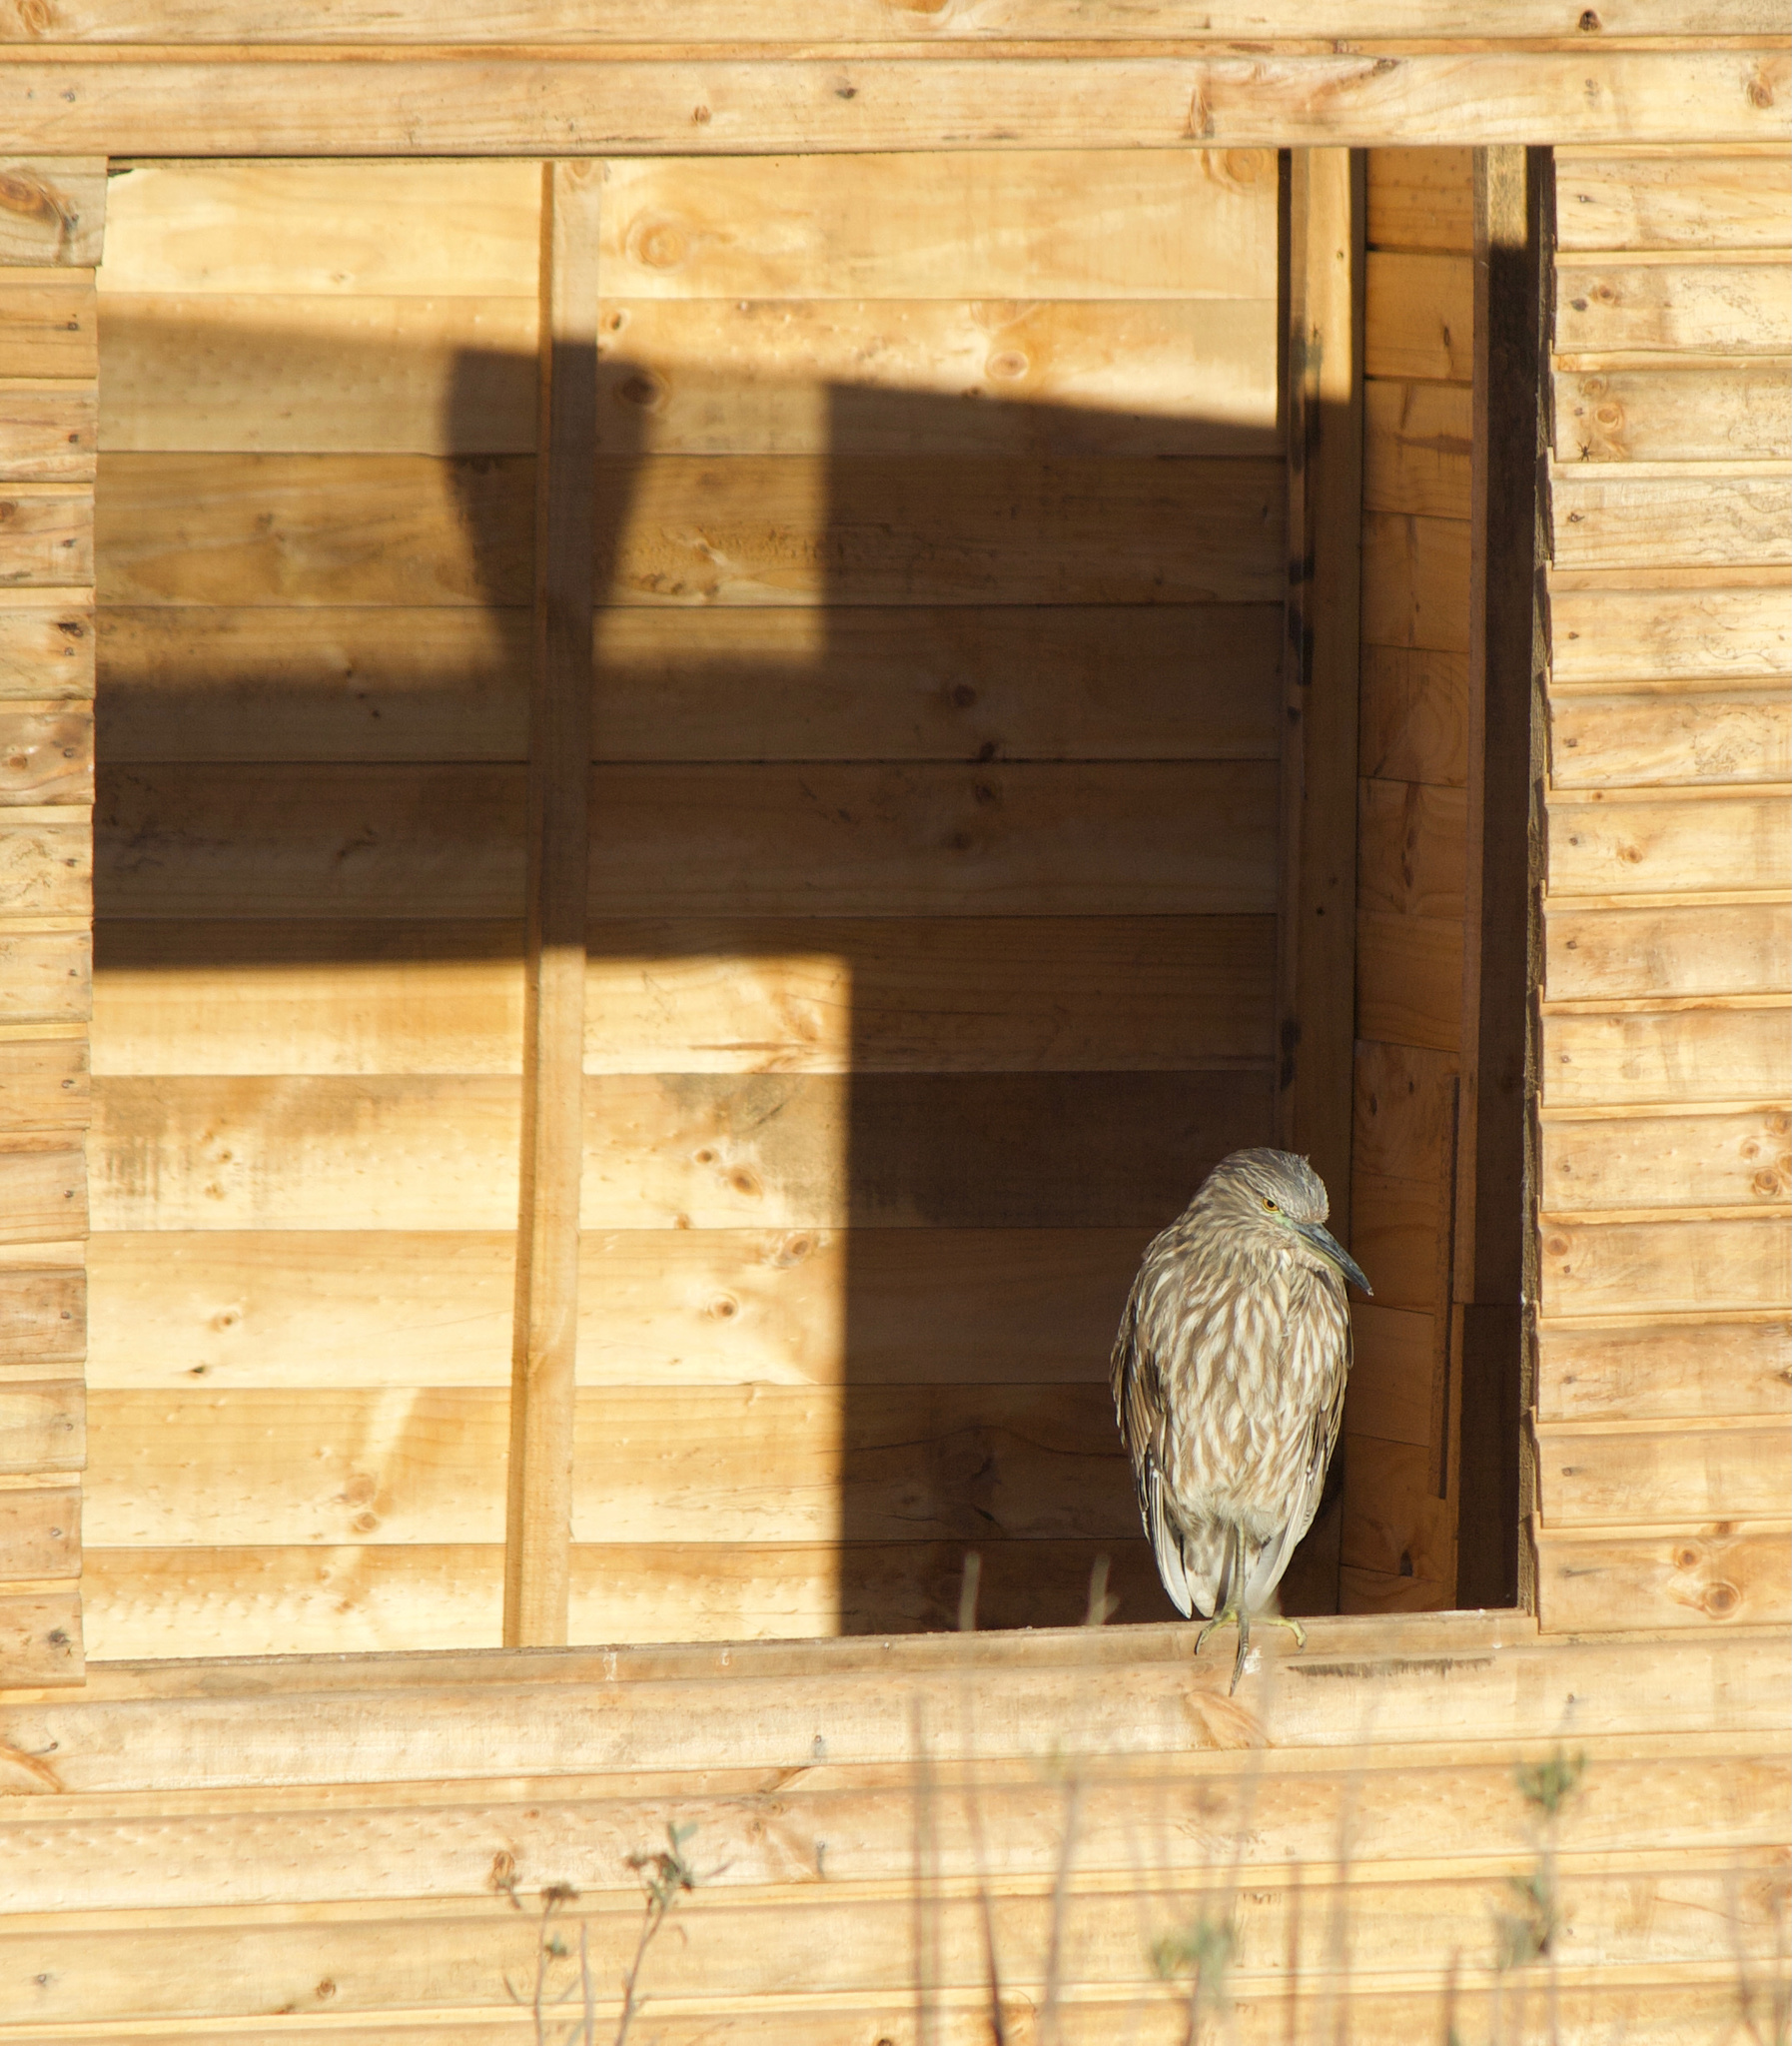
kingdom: Animalia
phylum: Chordata
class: Aves
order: Pelecaniformes
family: Ardeidae
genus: Nycticorax
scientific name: Nycticorax nycticorax
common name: Black-crowned night heron
